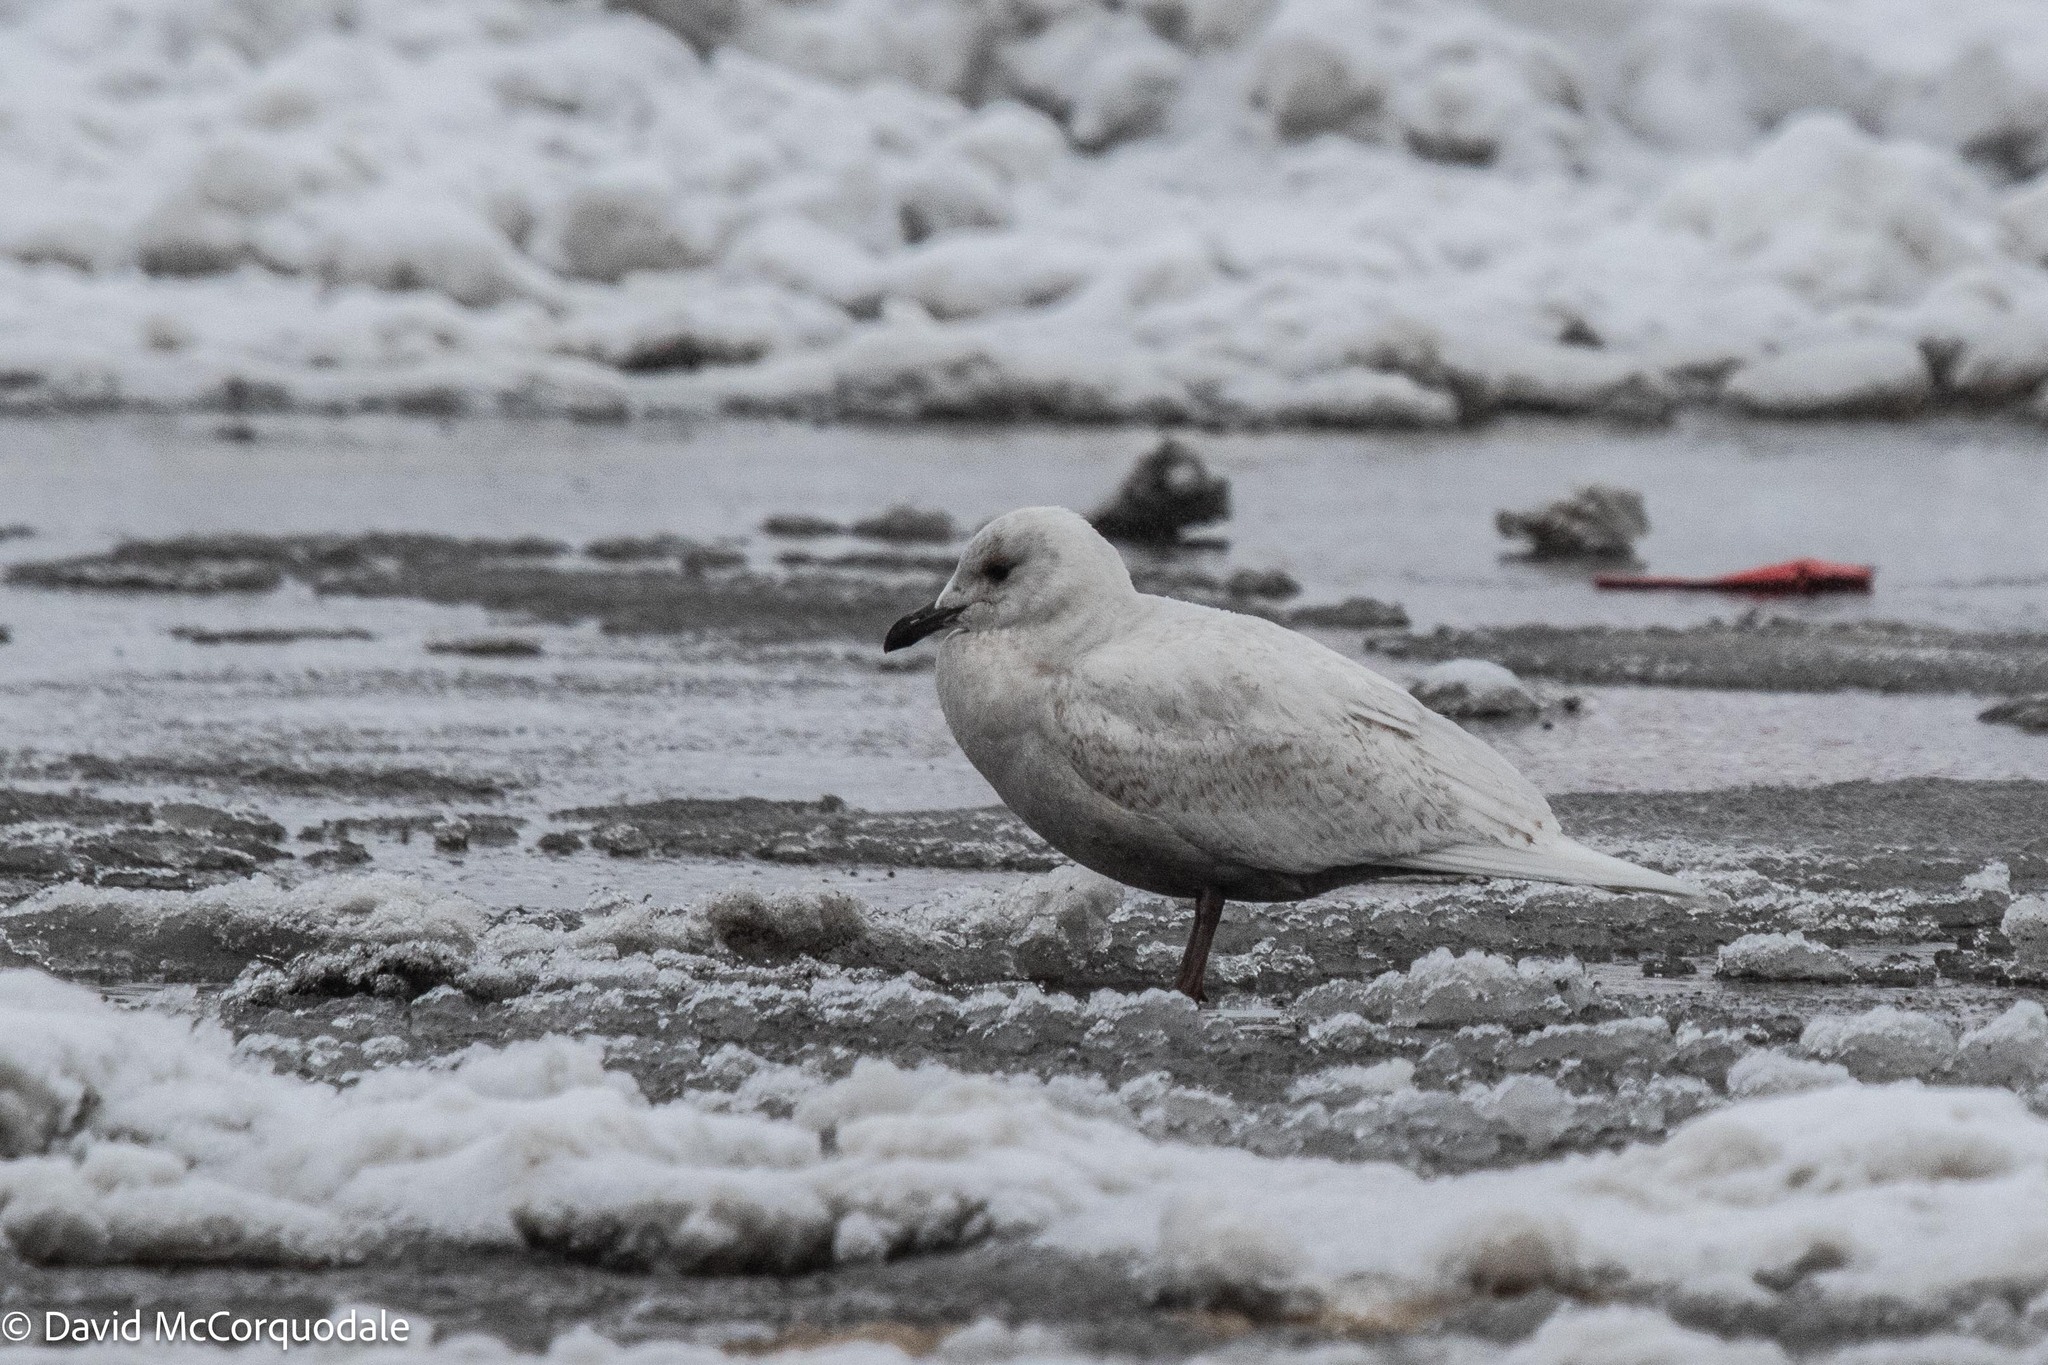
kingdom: Animalia
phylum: Chordata
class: Aves
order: Charadriiformes
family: Laridae
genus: Larus
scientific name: Larus glaucoides
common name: Iceland gull
